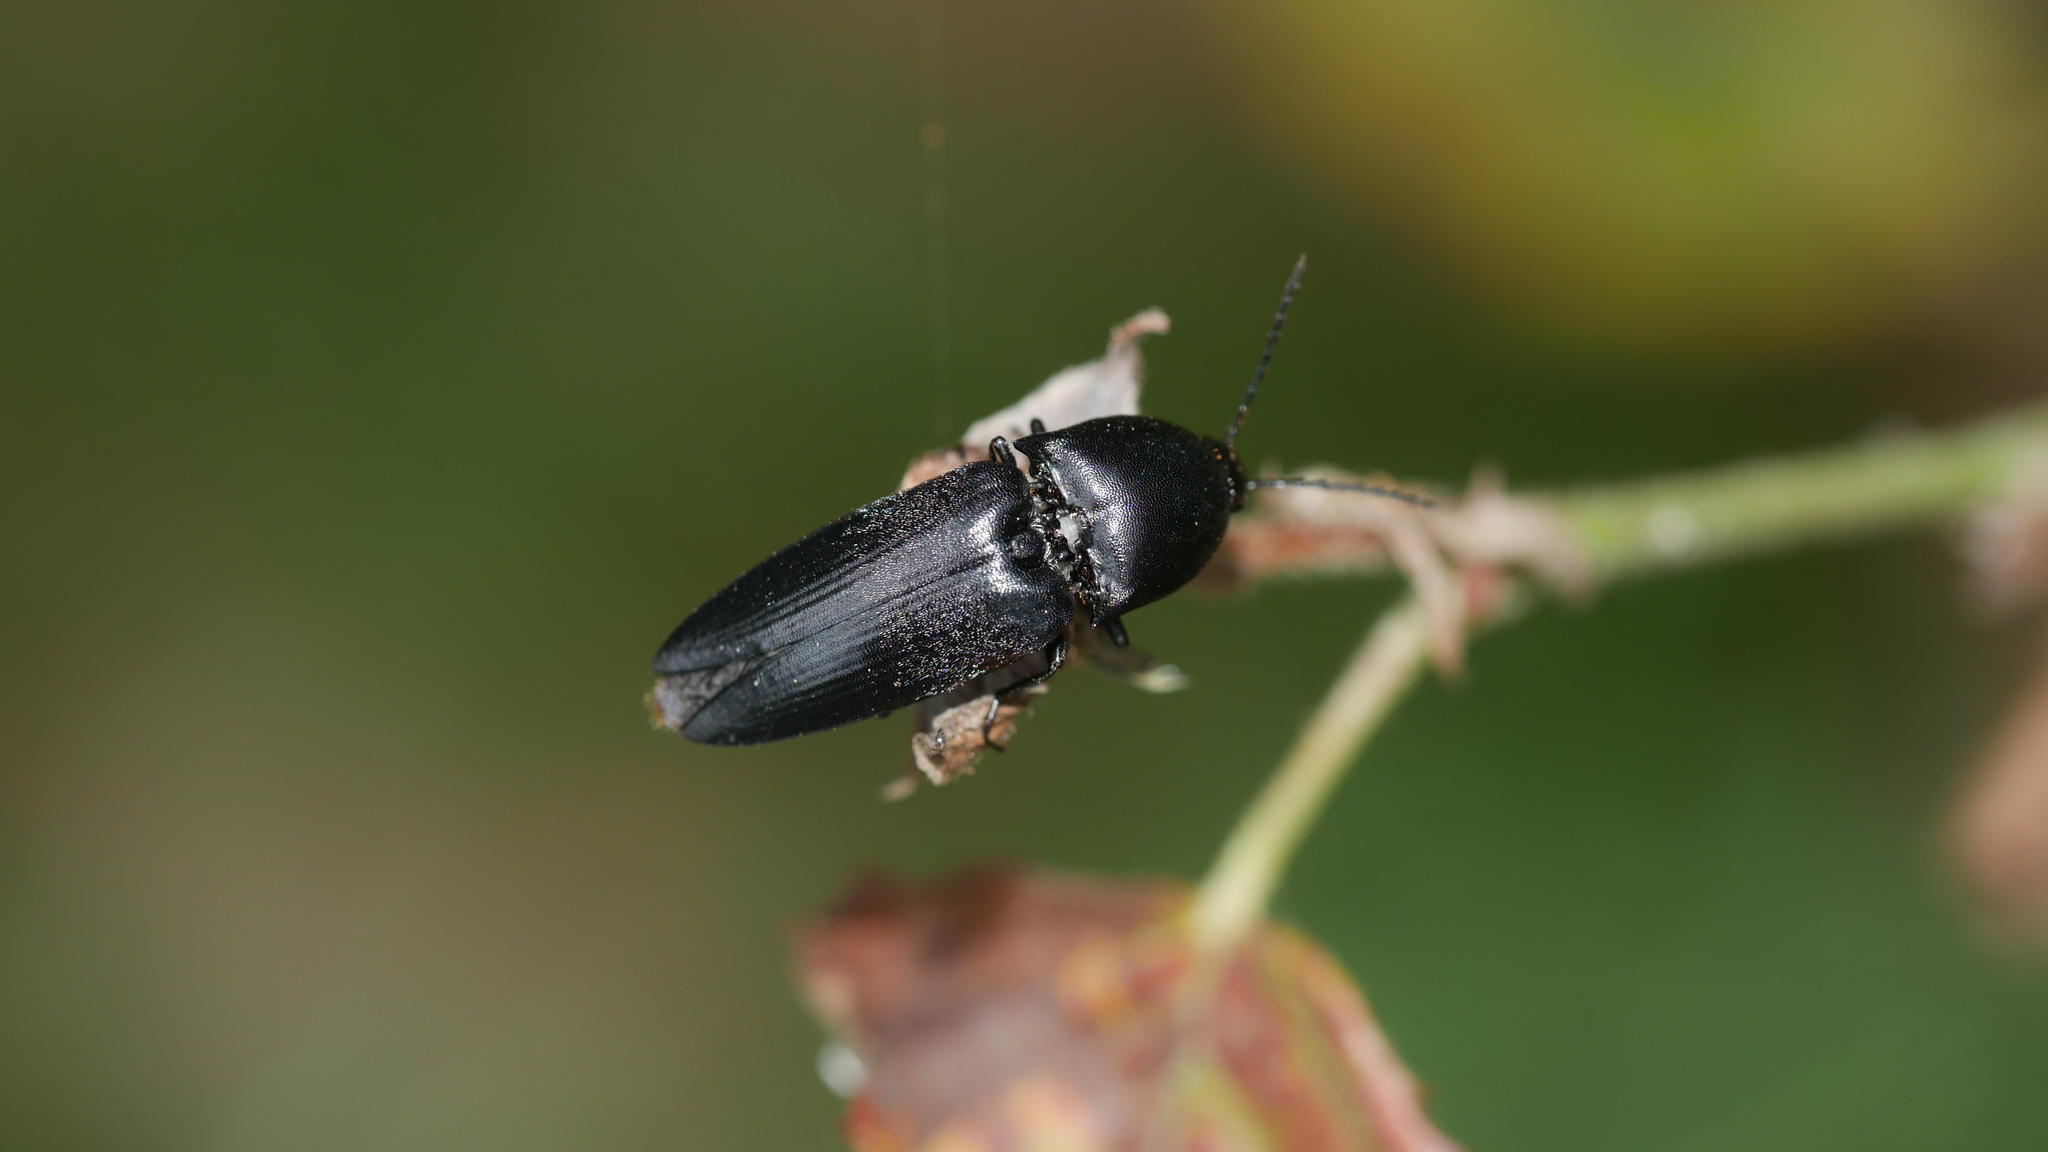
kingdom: Animalia
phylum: Arthropoda
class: Insecta
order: Coleoptera
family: Elateridae
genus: Parallelostethus
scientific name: Parallelostethus attenuatus
